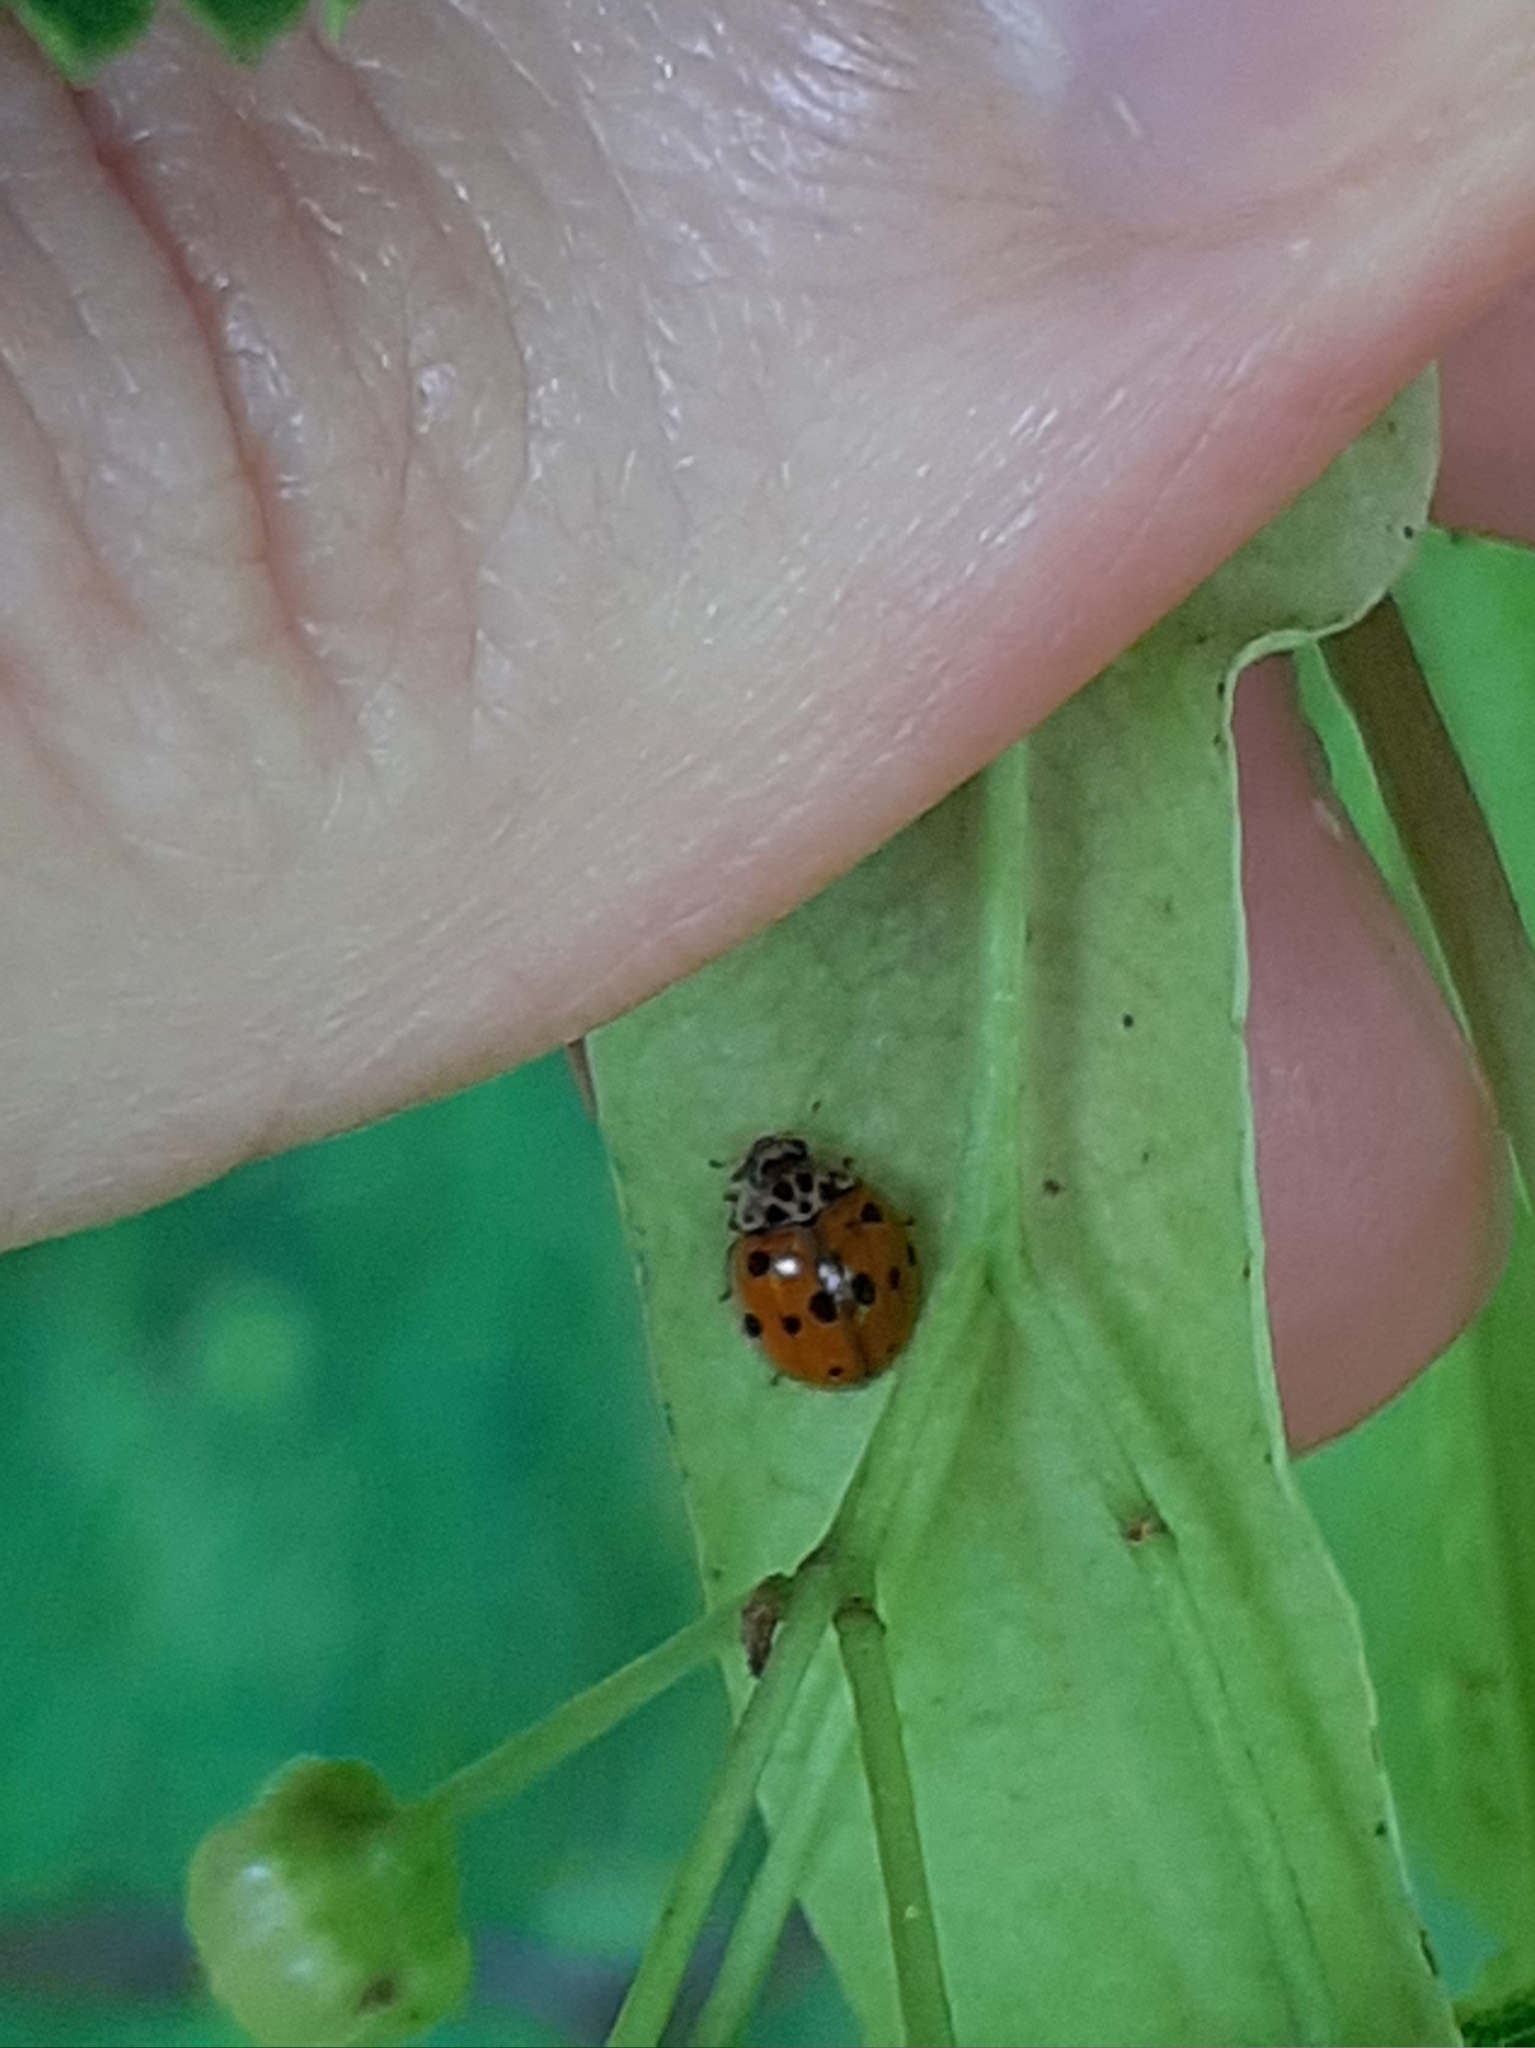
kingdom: Animalia
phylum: Arthropoda
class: Insecta
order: Coleoptera
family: Coccinellidae
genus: Adalia
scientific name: Adalia decempunctata
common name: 10-spot ladybird
